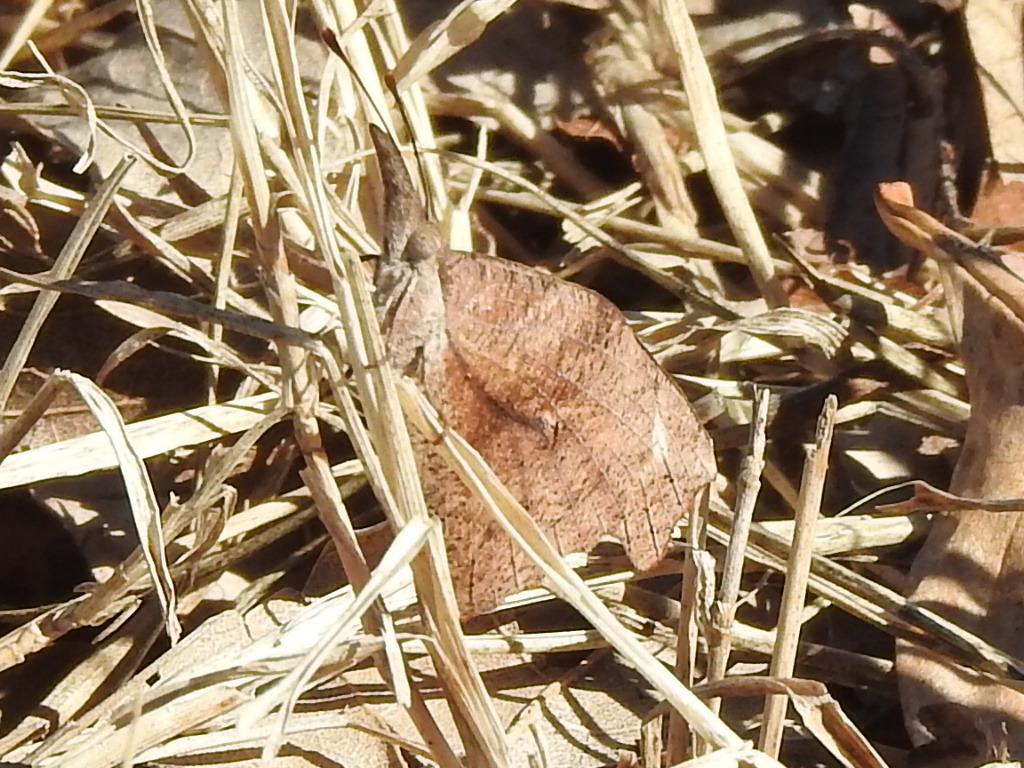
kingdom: Animalia
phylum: Arthropoda
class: Insecta
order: Lepidoptera
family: Nymphalidae
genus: Libytheana
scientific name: Libytheana carinenta
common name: American snout
